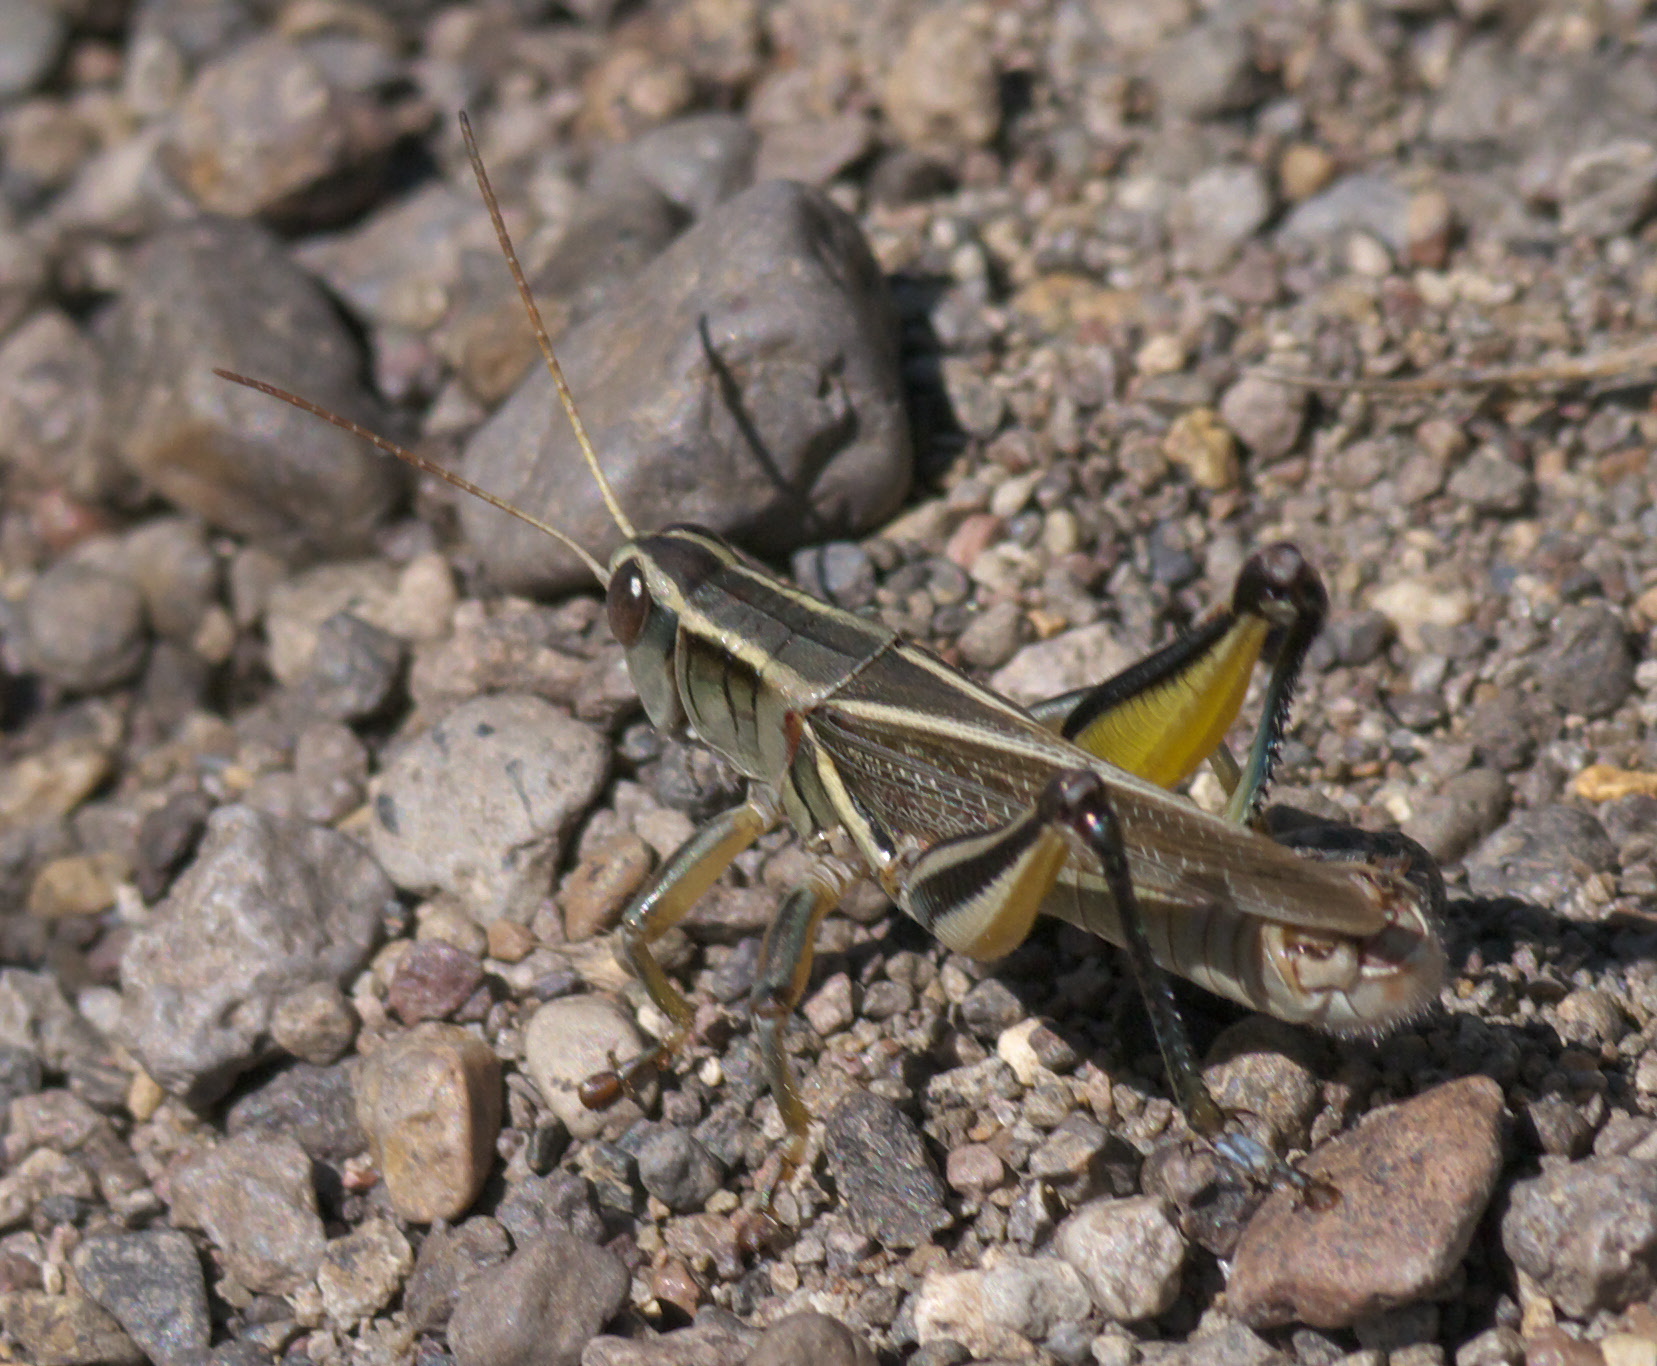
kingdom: Animalia
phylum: Arthropoda
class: Insecta
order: Orthoptera
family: Acrididae
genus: Melanoplus
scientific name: Melanoplus bivittatus
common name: Two-striped grasshopper
